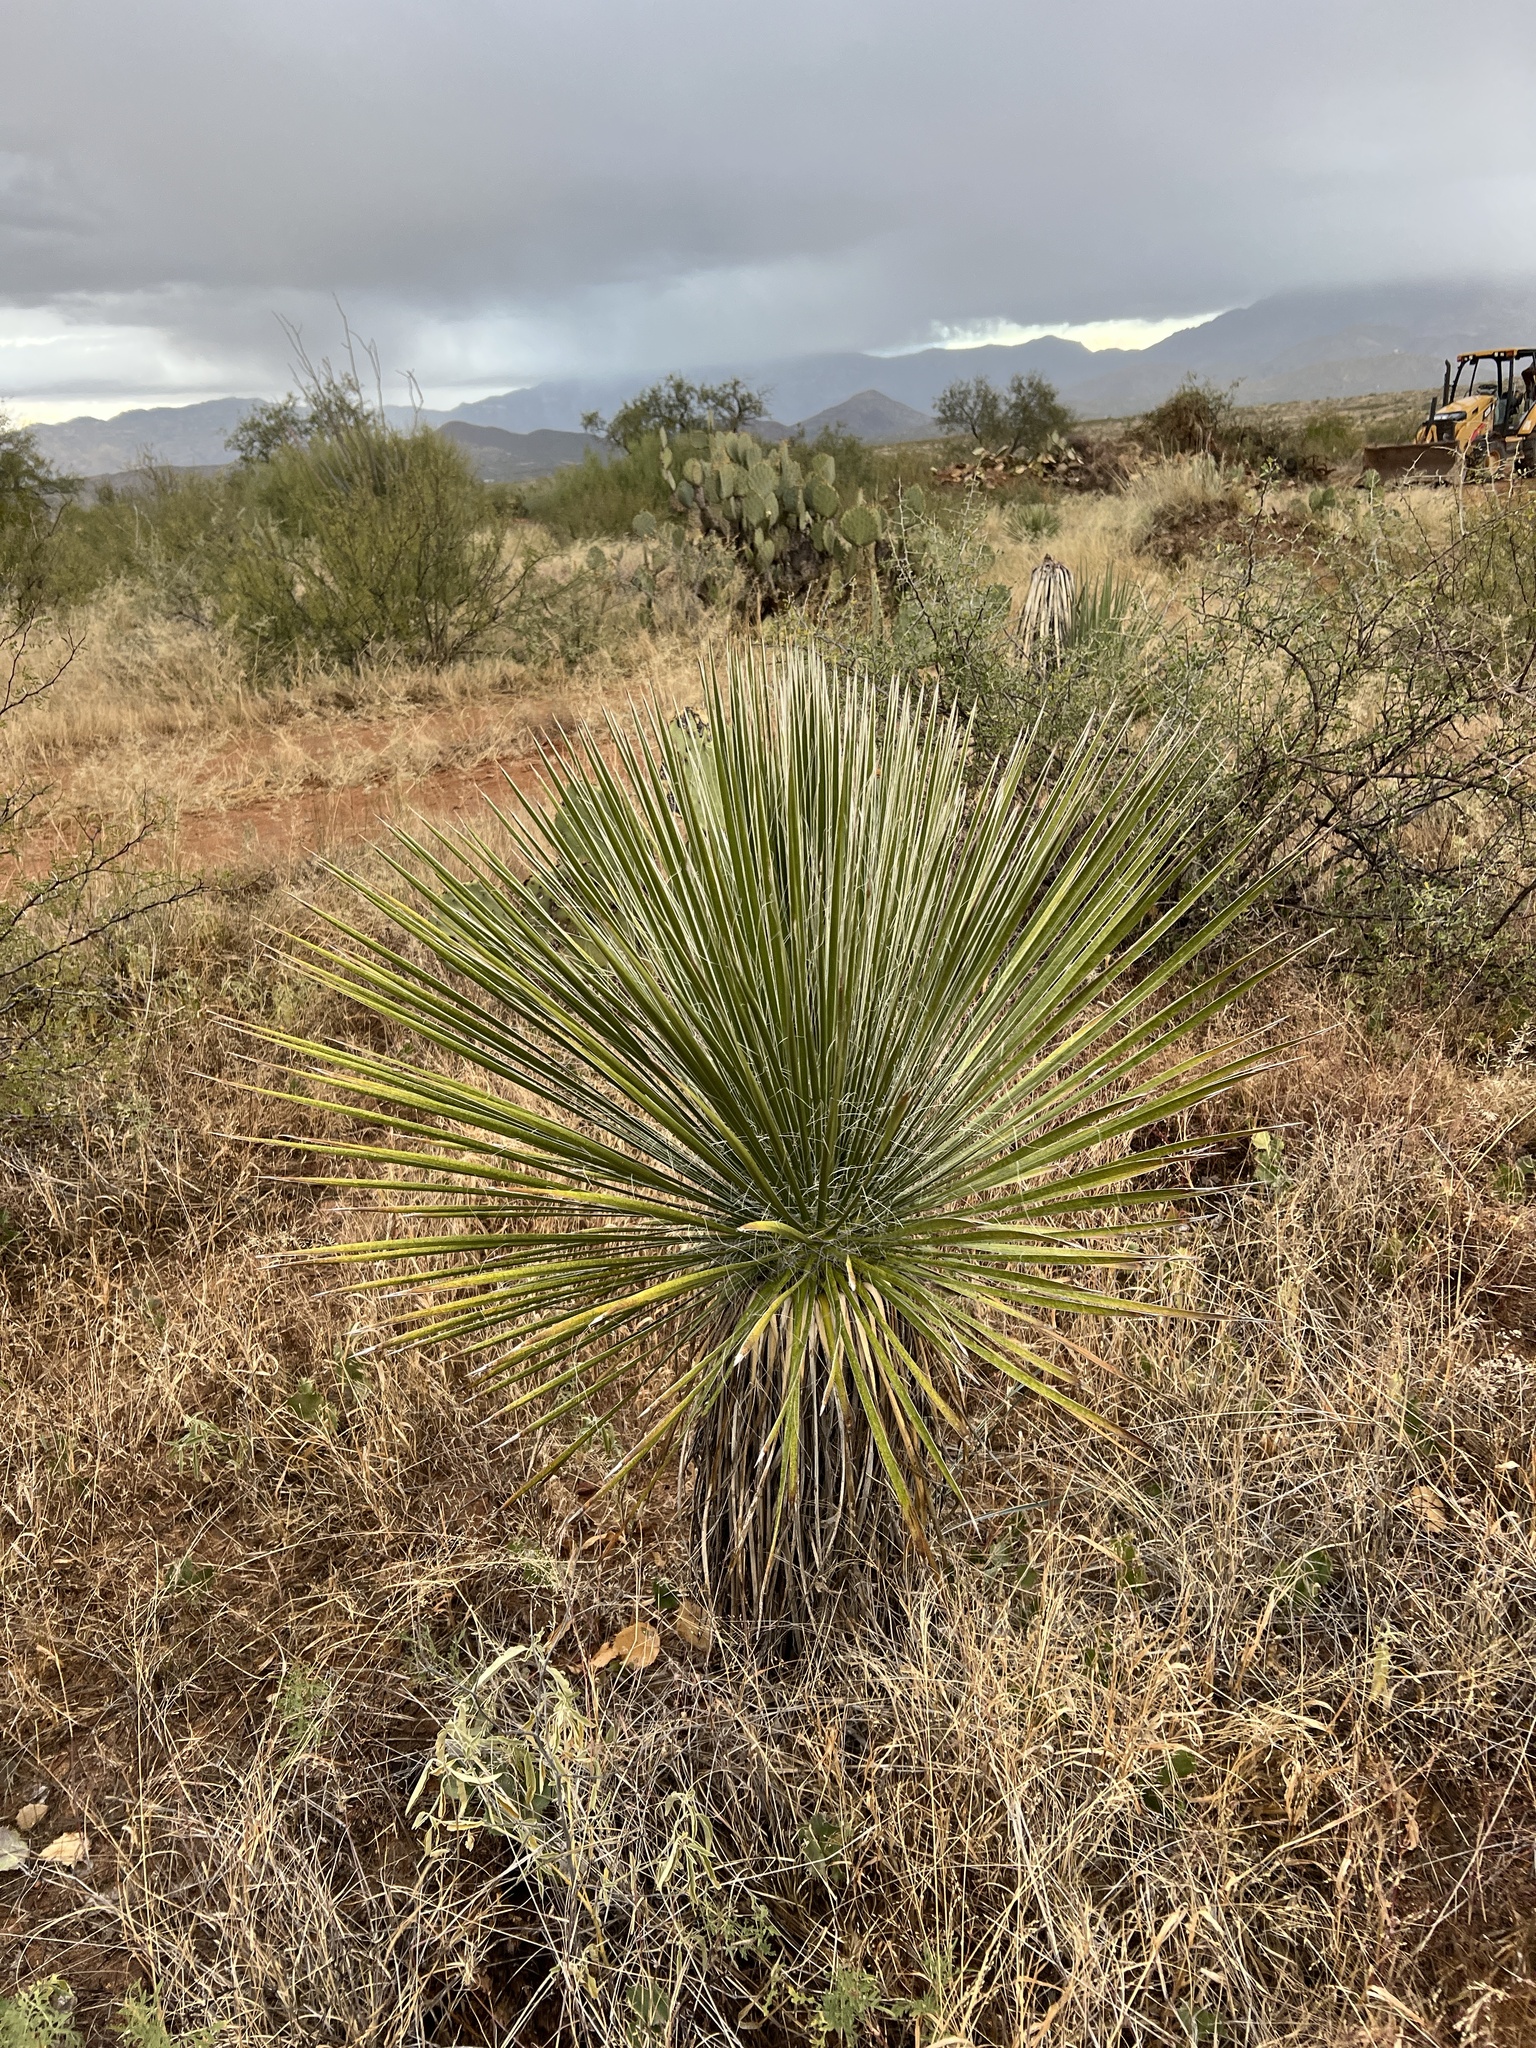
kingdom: Plantae
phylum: Tracheophyta
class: Liliopsida
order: Asparagales
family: Asparagaceae
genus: Yucca
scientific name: Yucca elata
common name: Palmella
